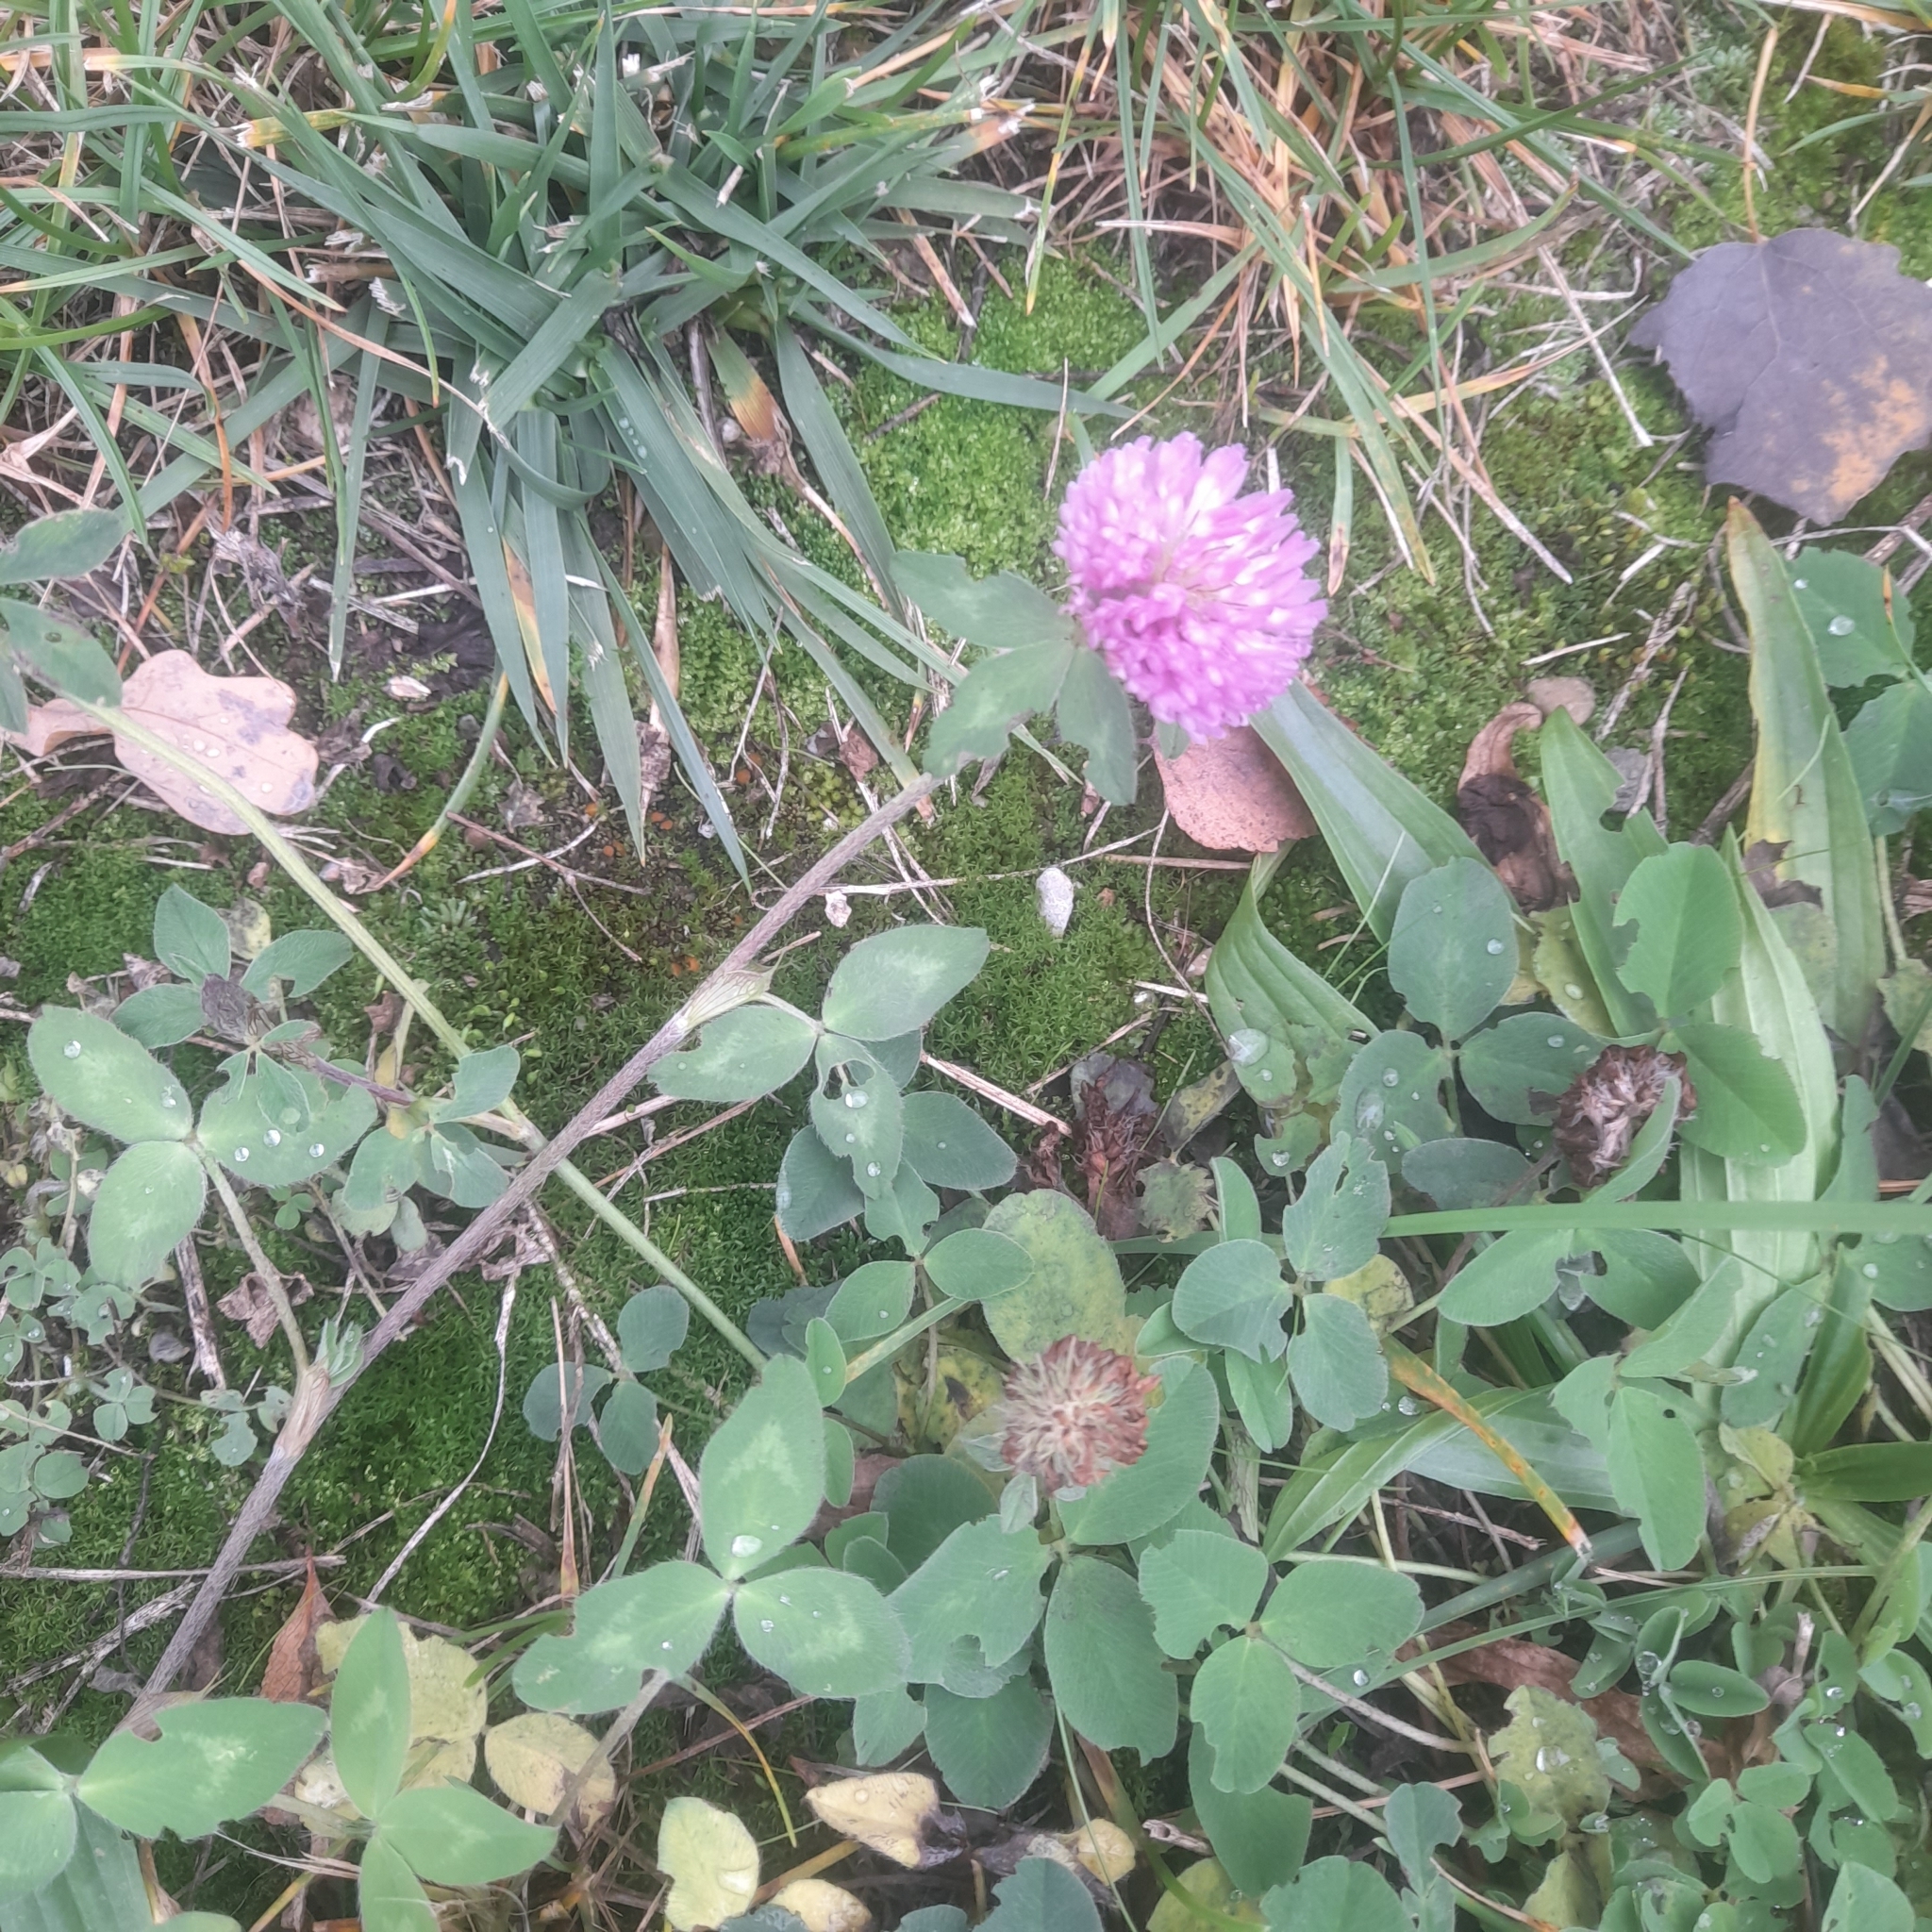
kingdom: Plantae
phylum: Tracheophyta
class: Magnoliopsida
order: Fabales
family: Fabaceae
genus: Trifolium
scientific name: Trifolium pratense
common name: Red clover
